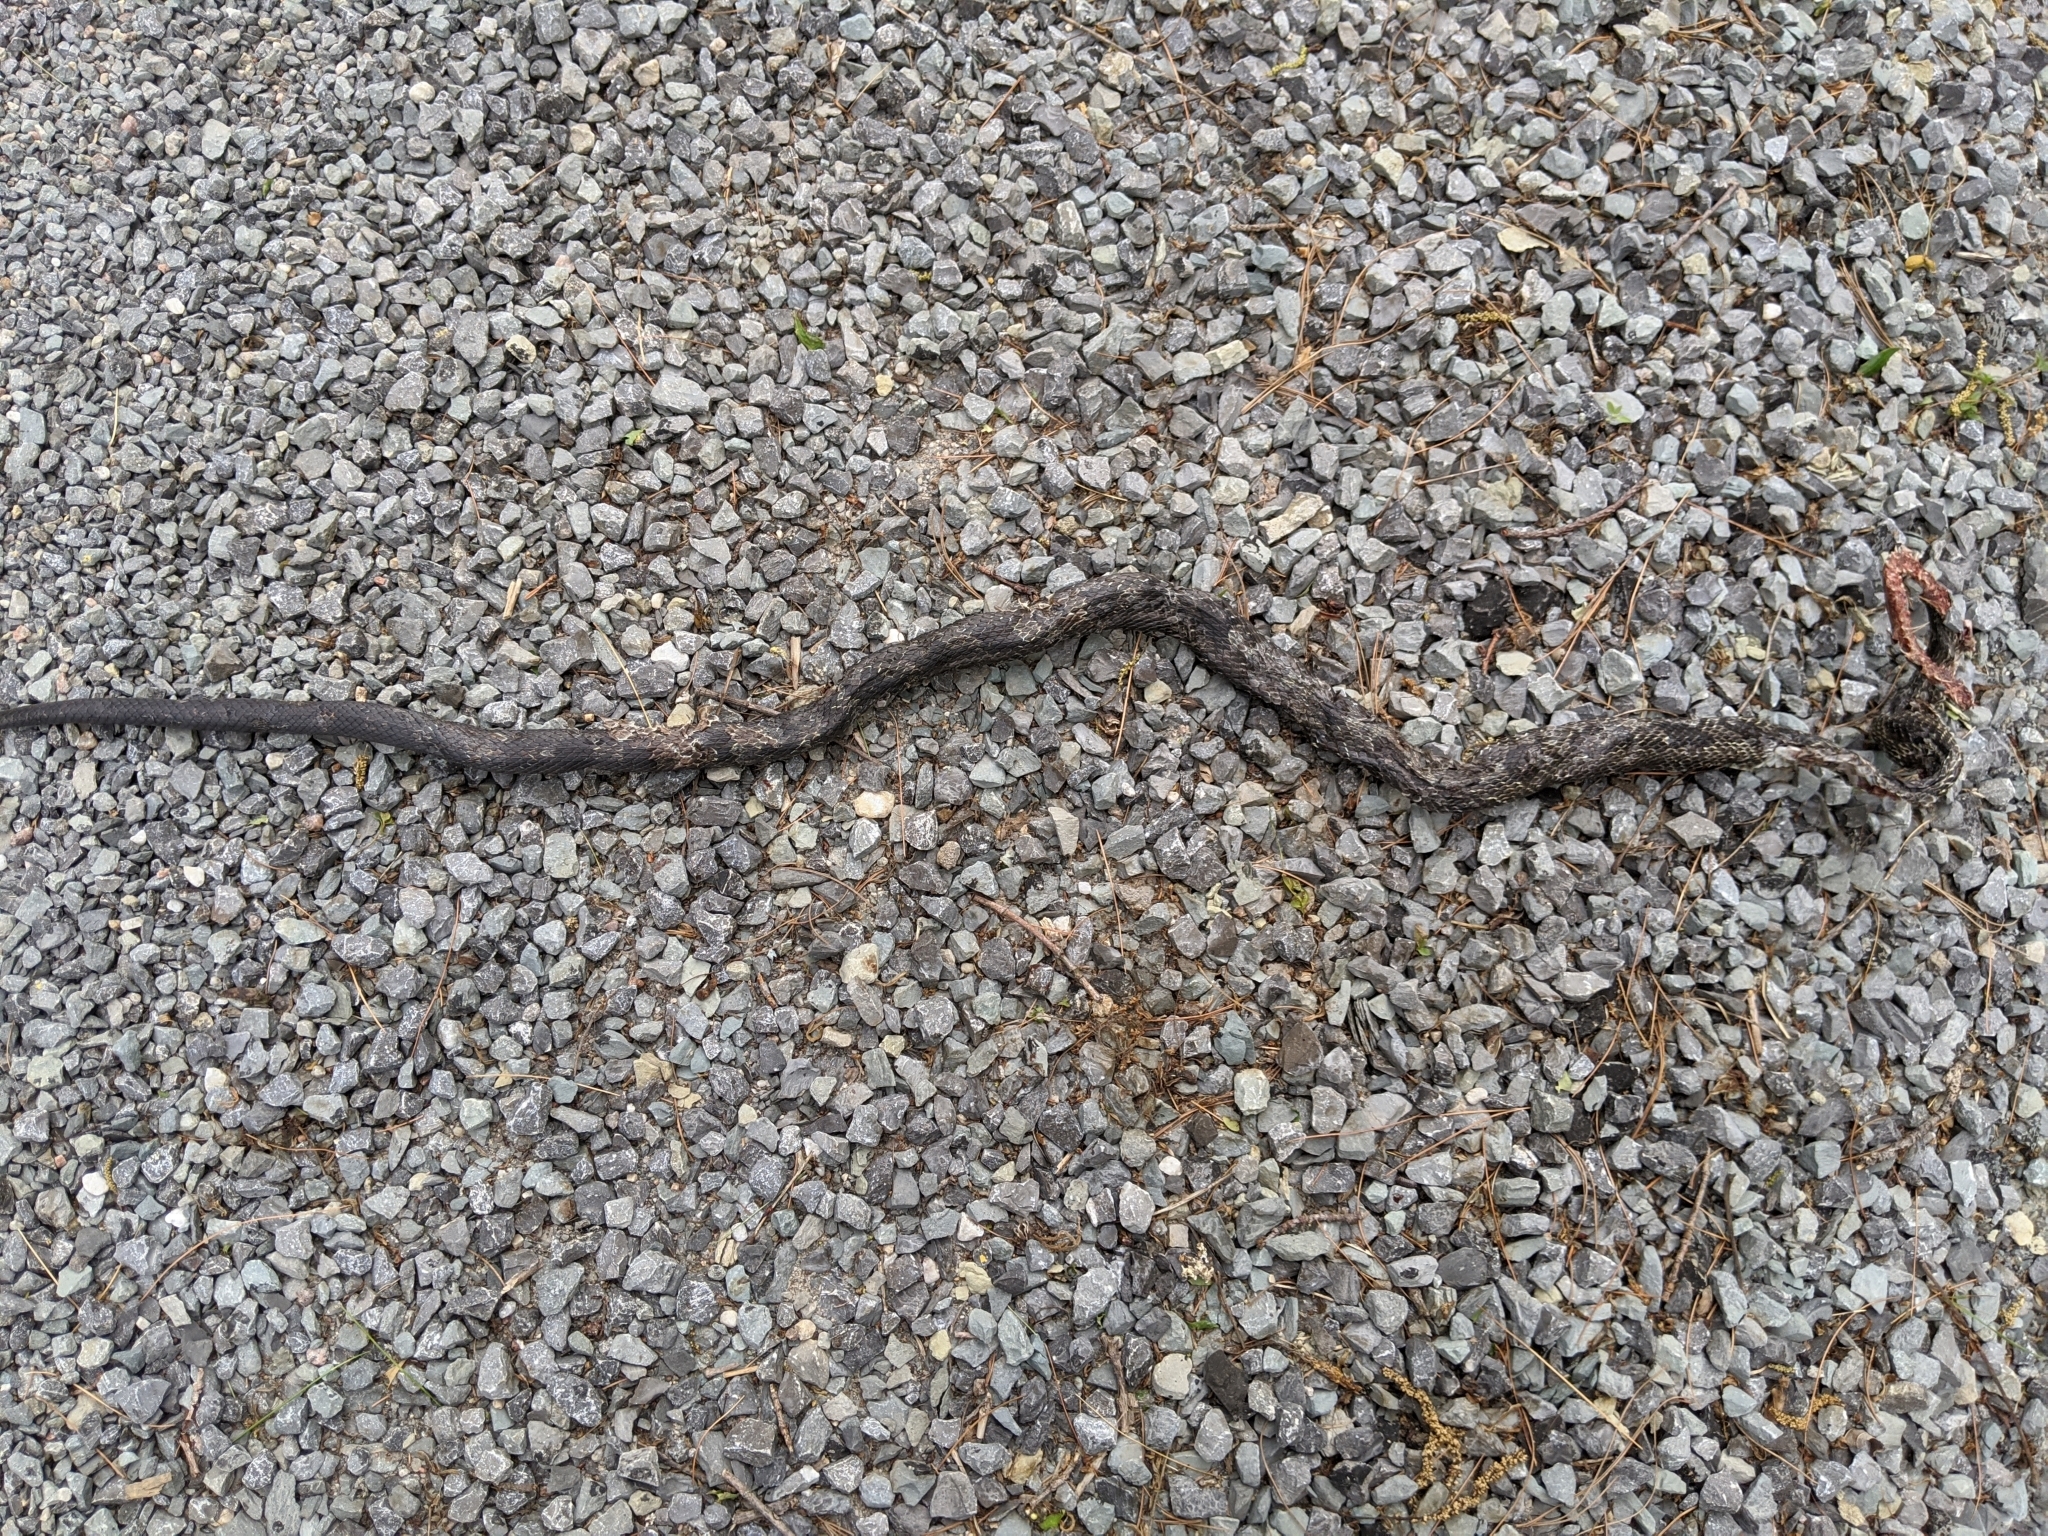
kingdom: Animalia
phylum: Chordata
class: Squamata
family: Colubridae
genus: Pantherophis
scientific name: Pantherophis spiloides
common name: Gray rat snake
